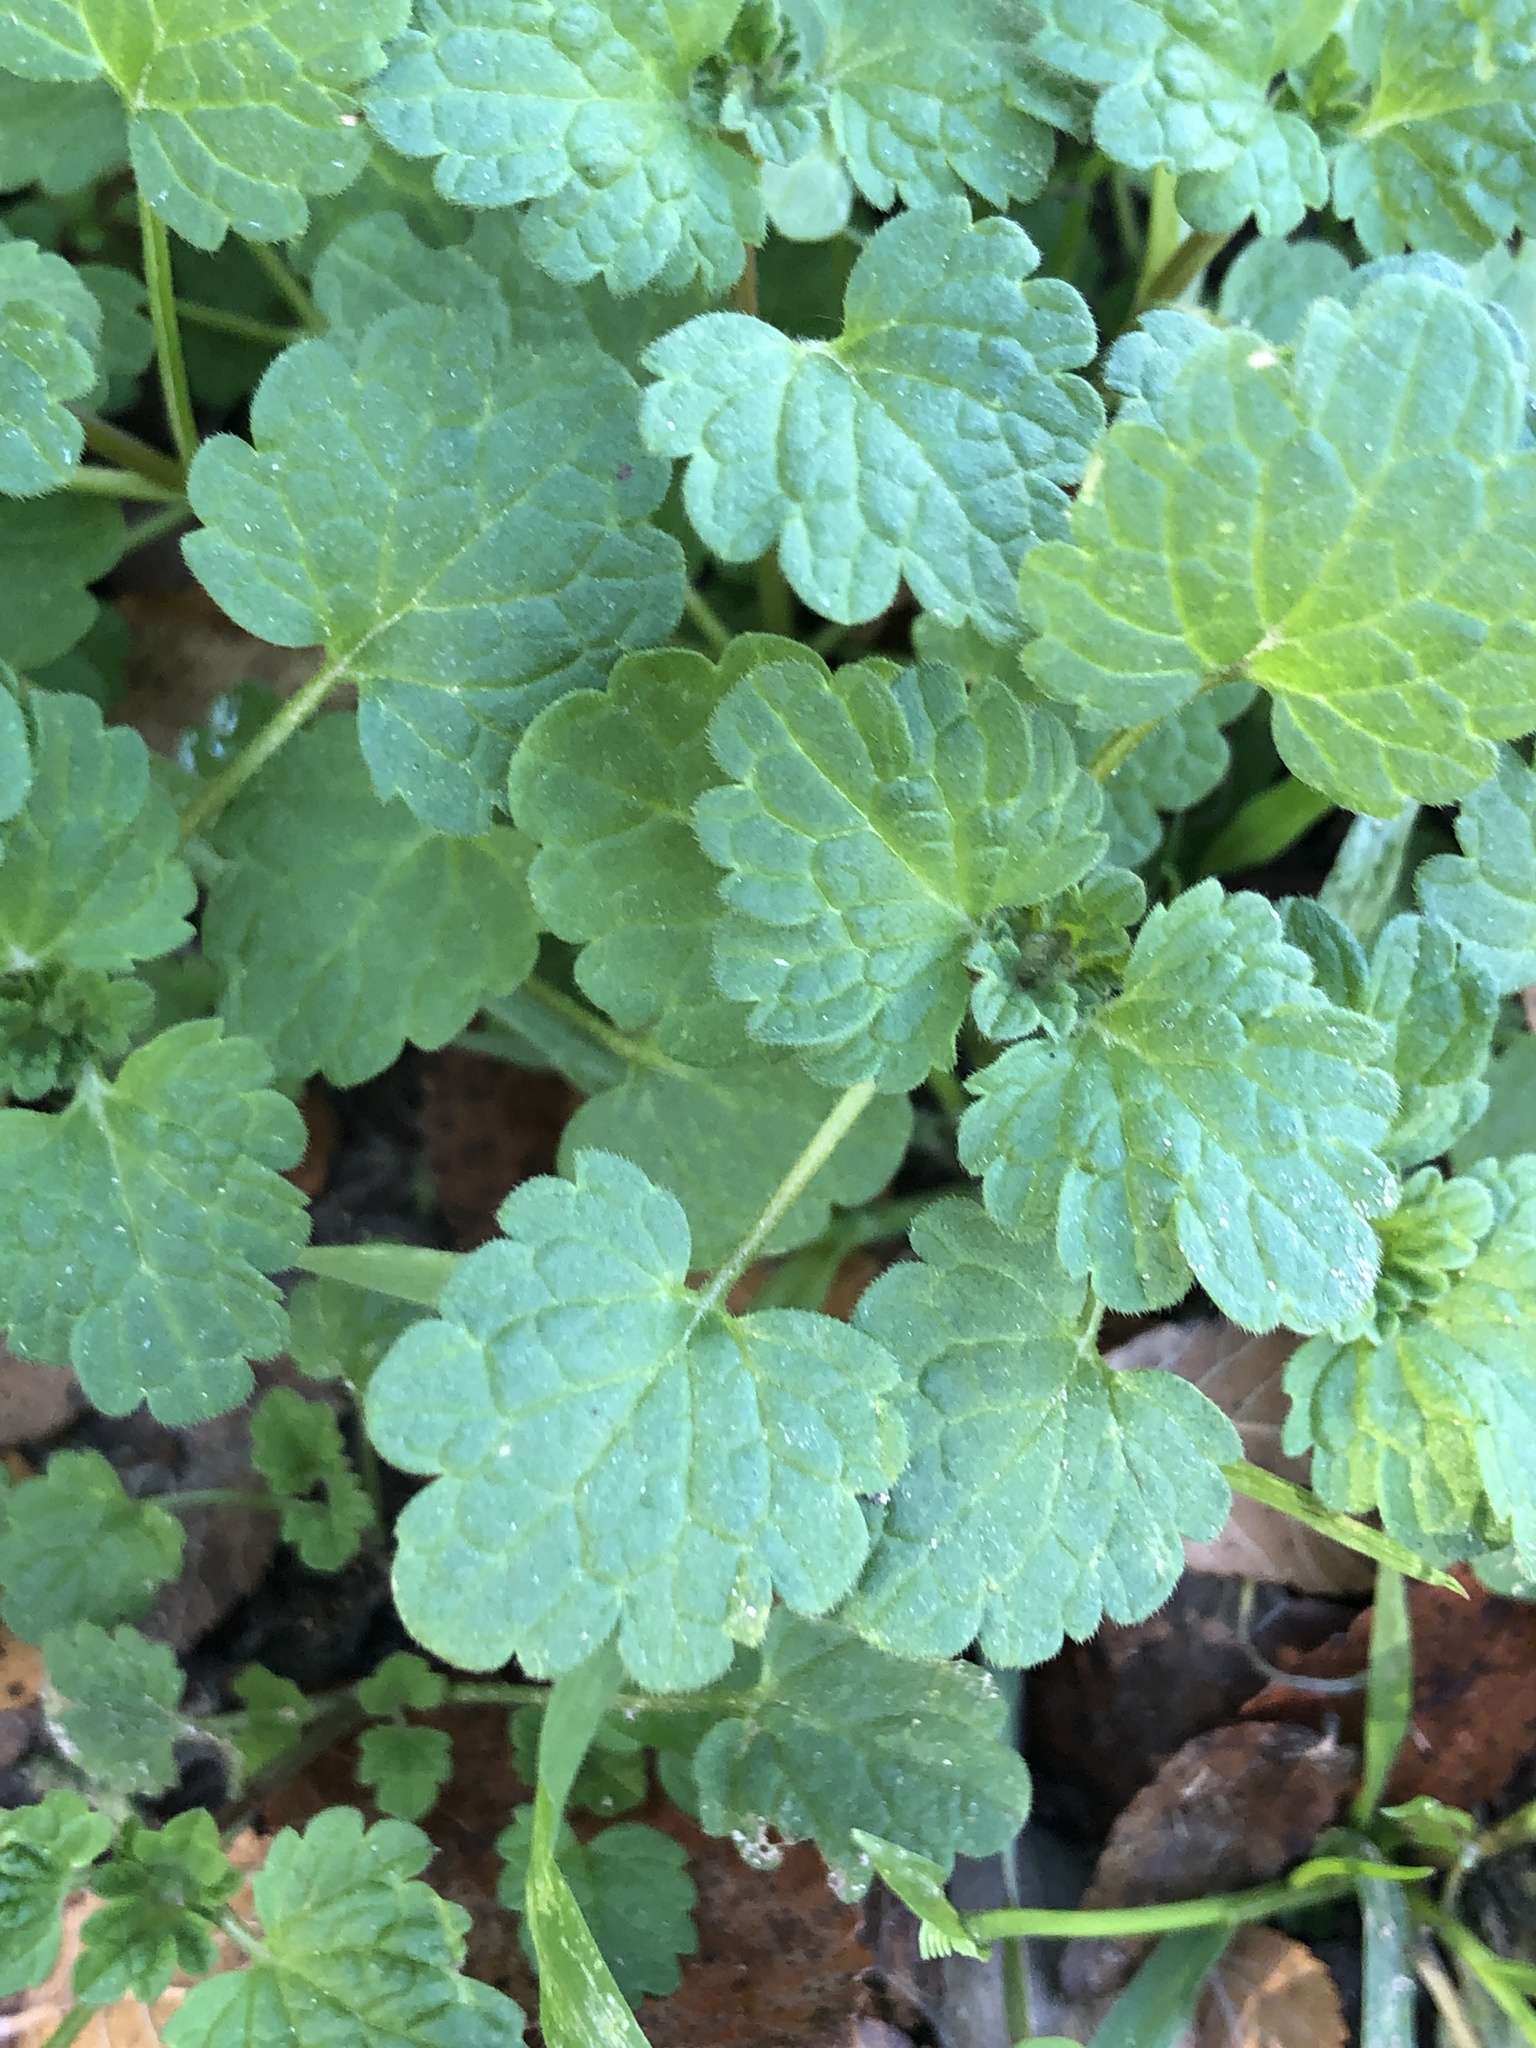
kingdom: Plantae
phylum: Tracheophyta
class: Magnoliopsida
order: Lamiales
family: Lamiaceae
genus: Lamium
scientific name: Lamium amplexicaule
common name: Henbit dead-nettle
